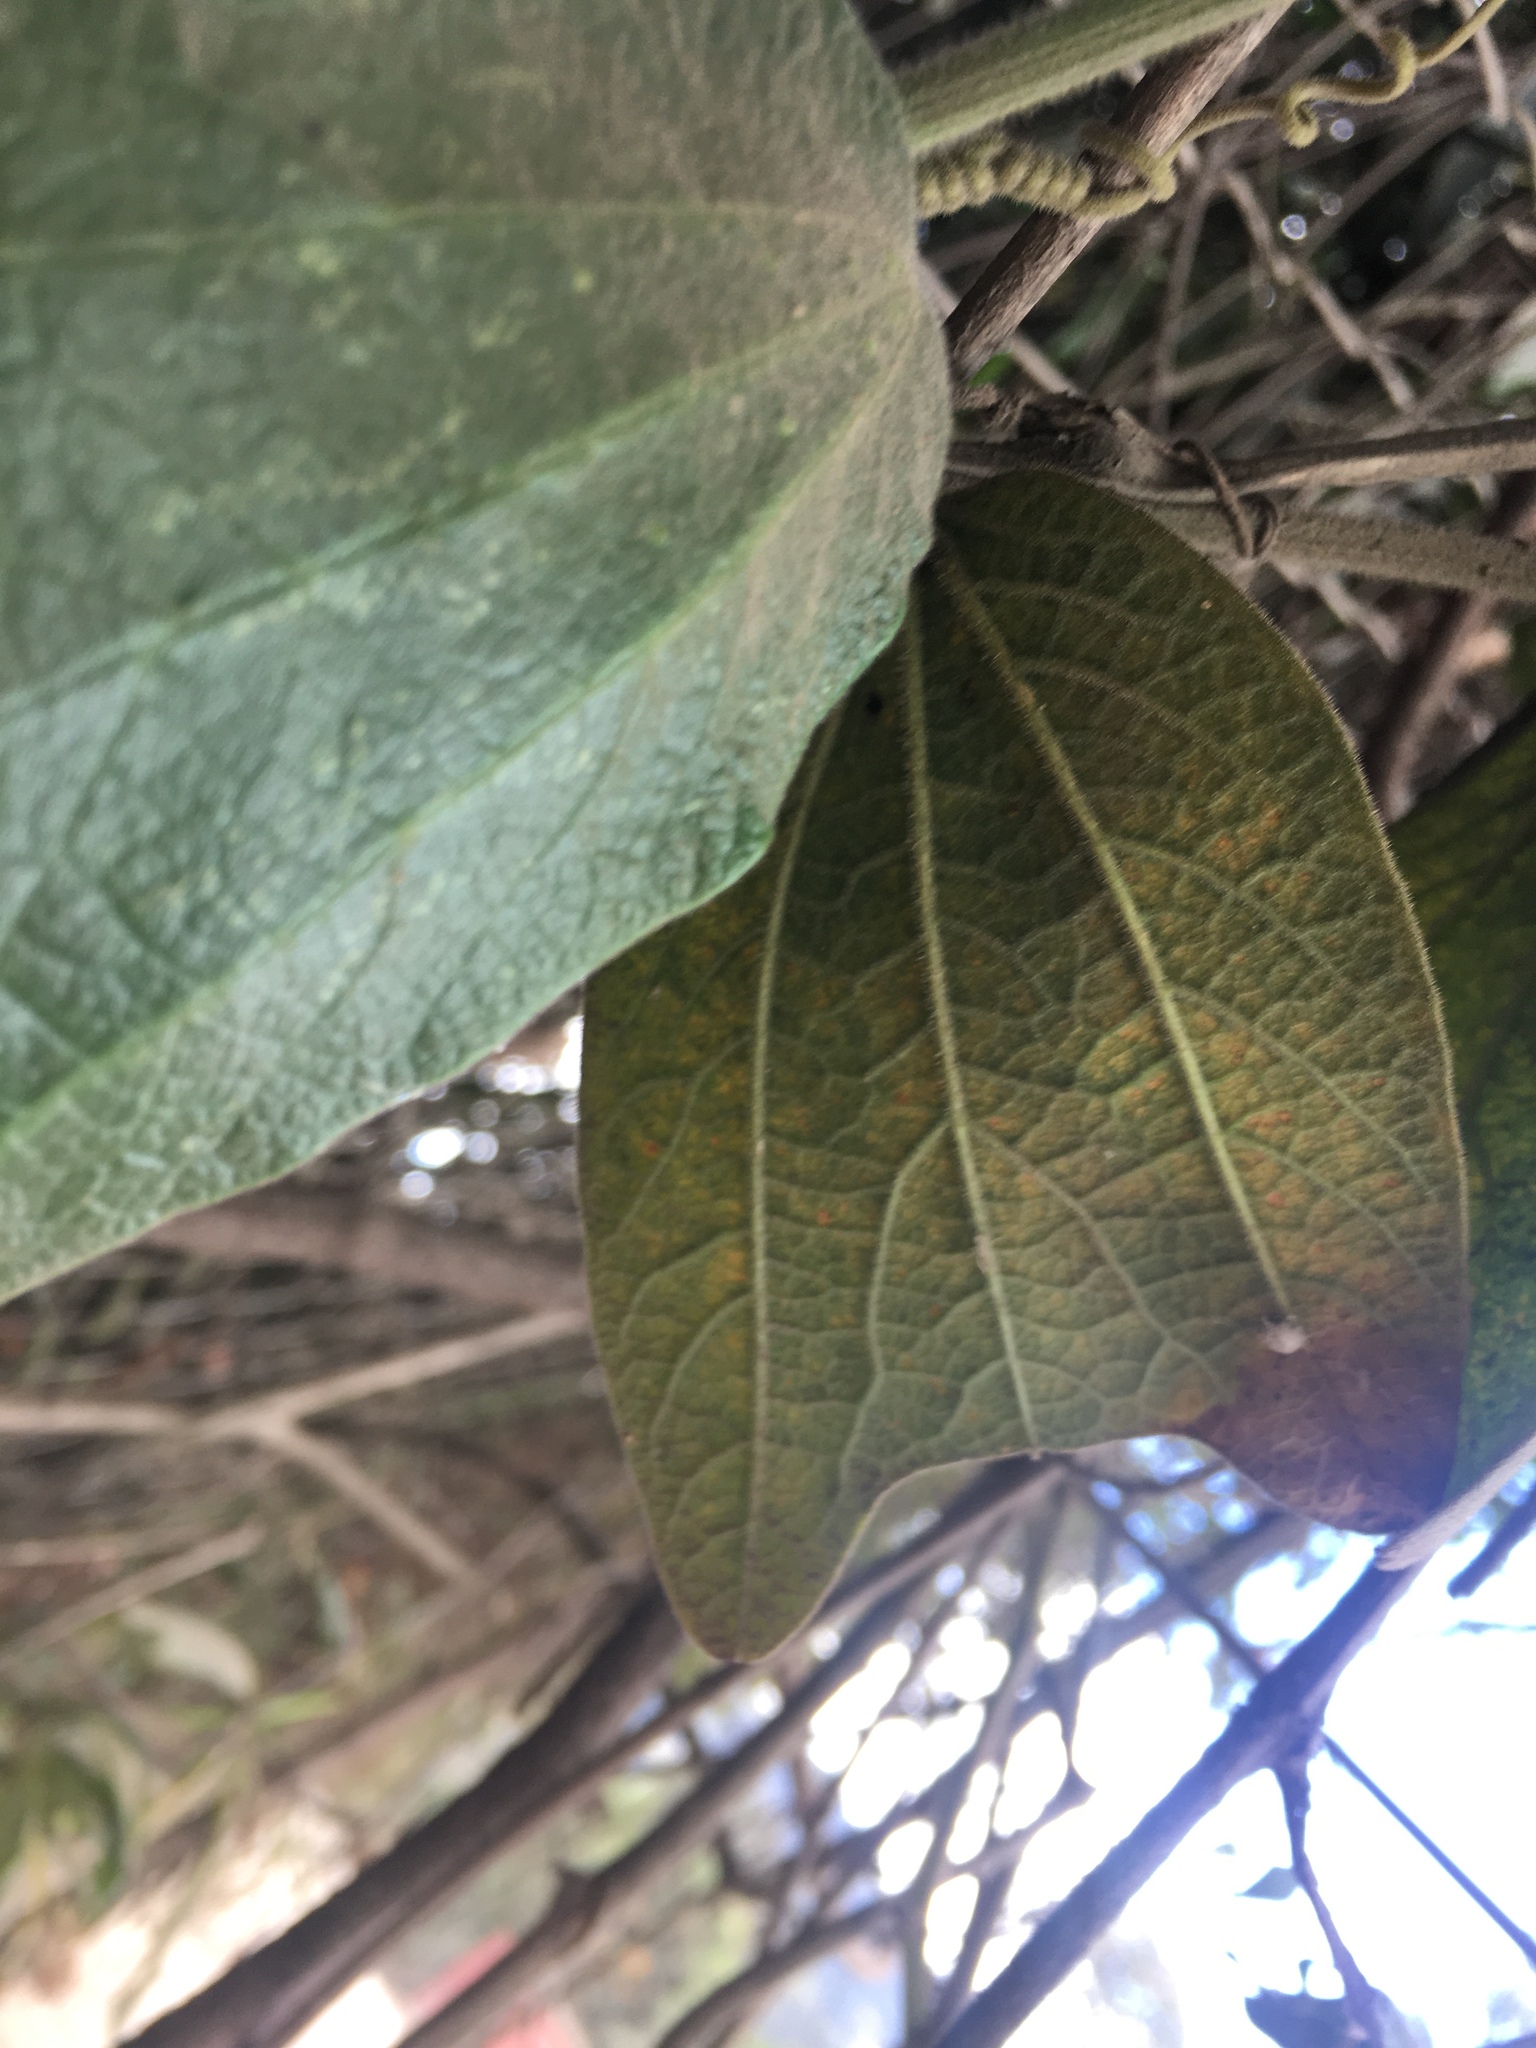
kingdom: Plantae
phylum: Tracheophyta
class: Magnoliopsida
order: Malpighiales
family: Passifloraceae
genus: Passiflora
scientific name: Passiflora bogotensis
